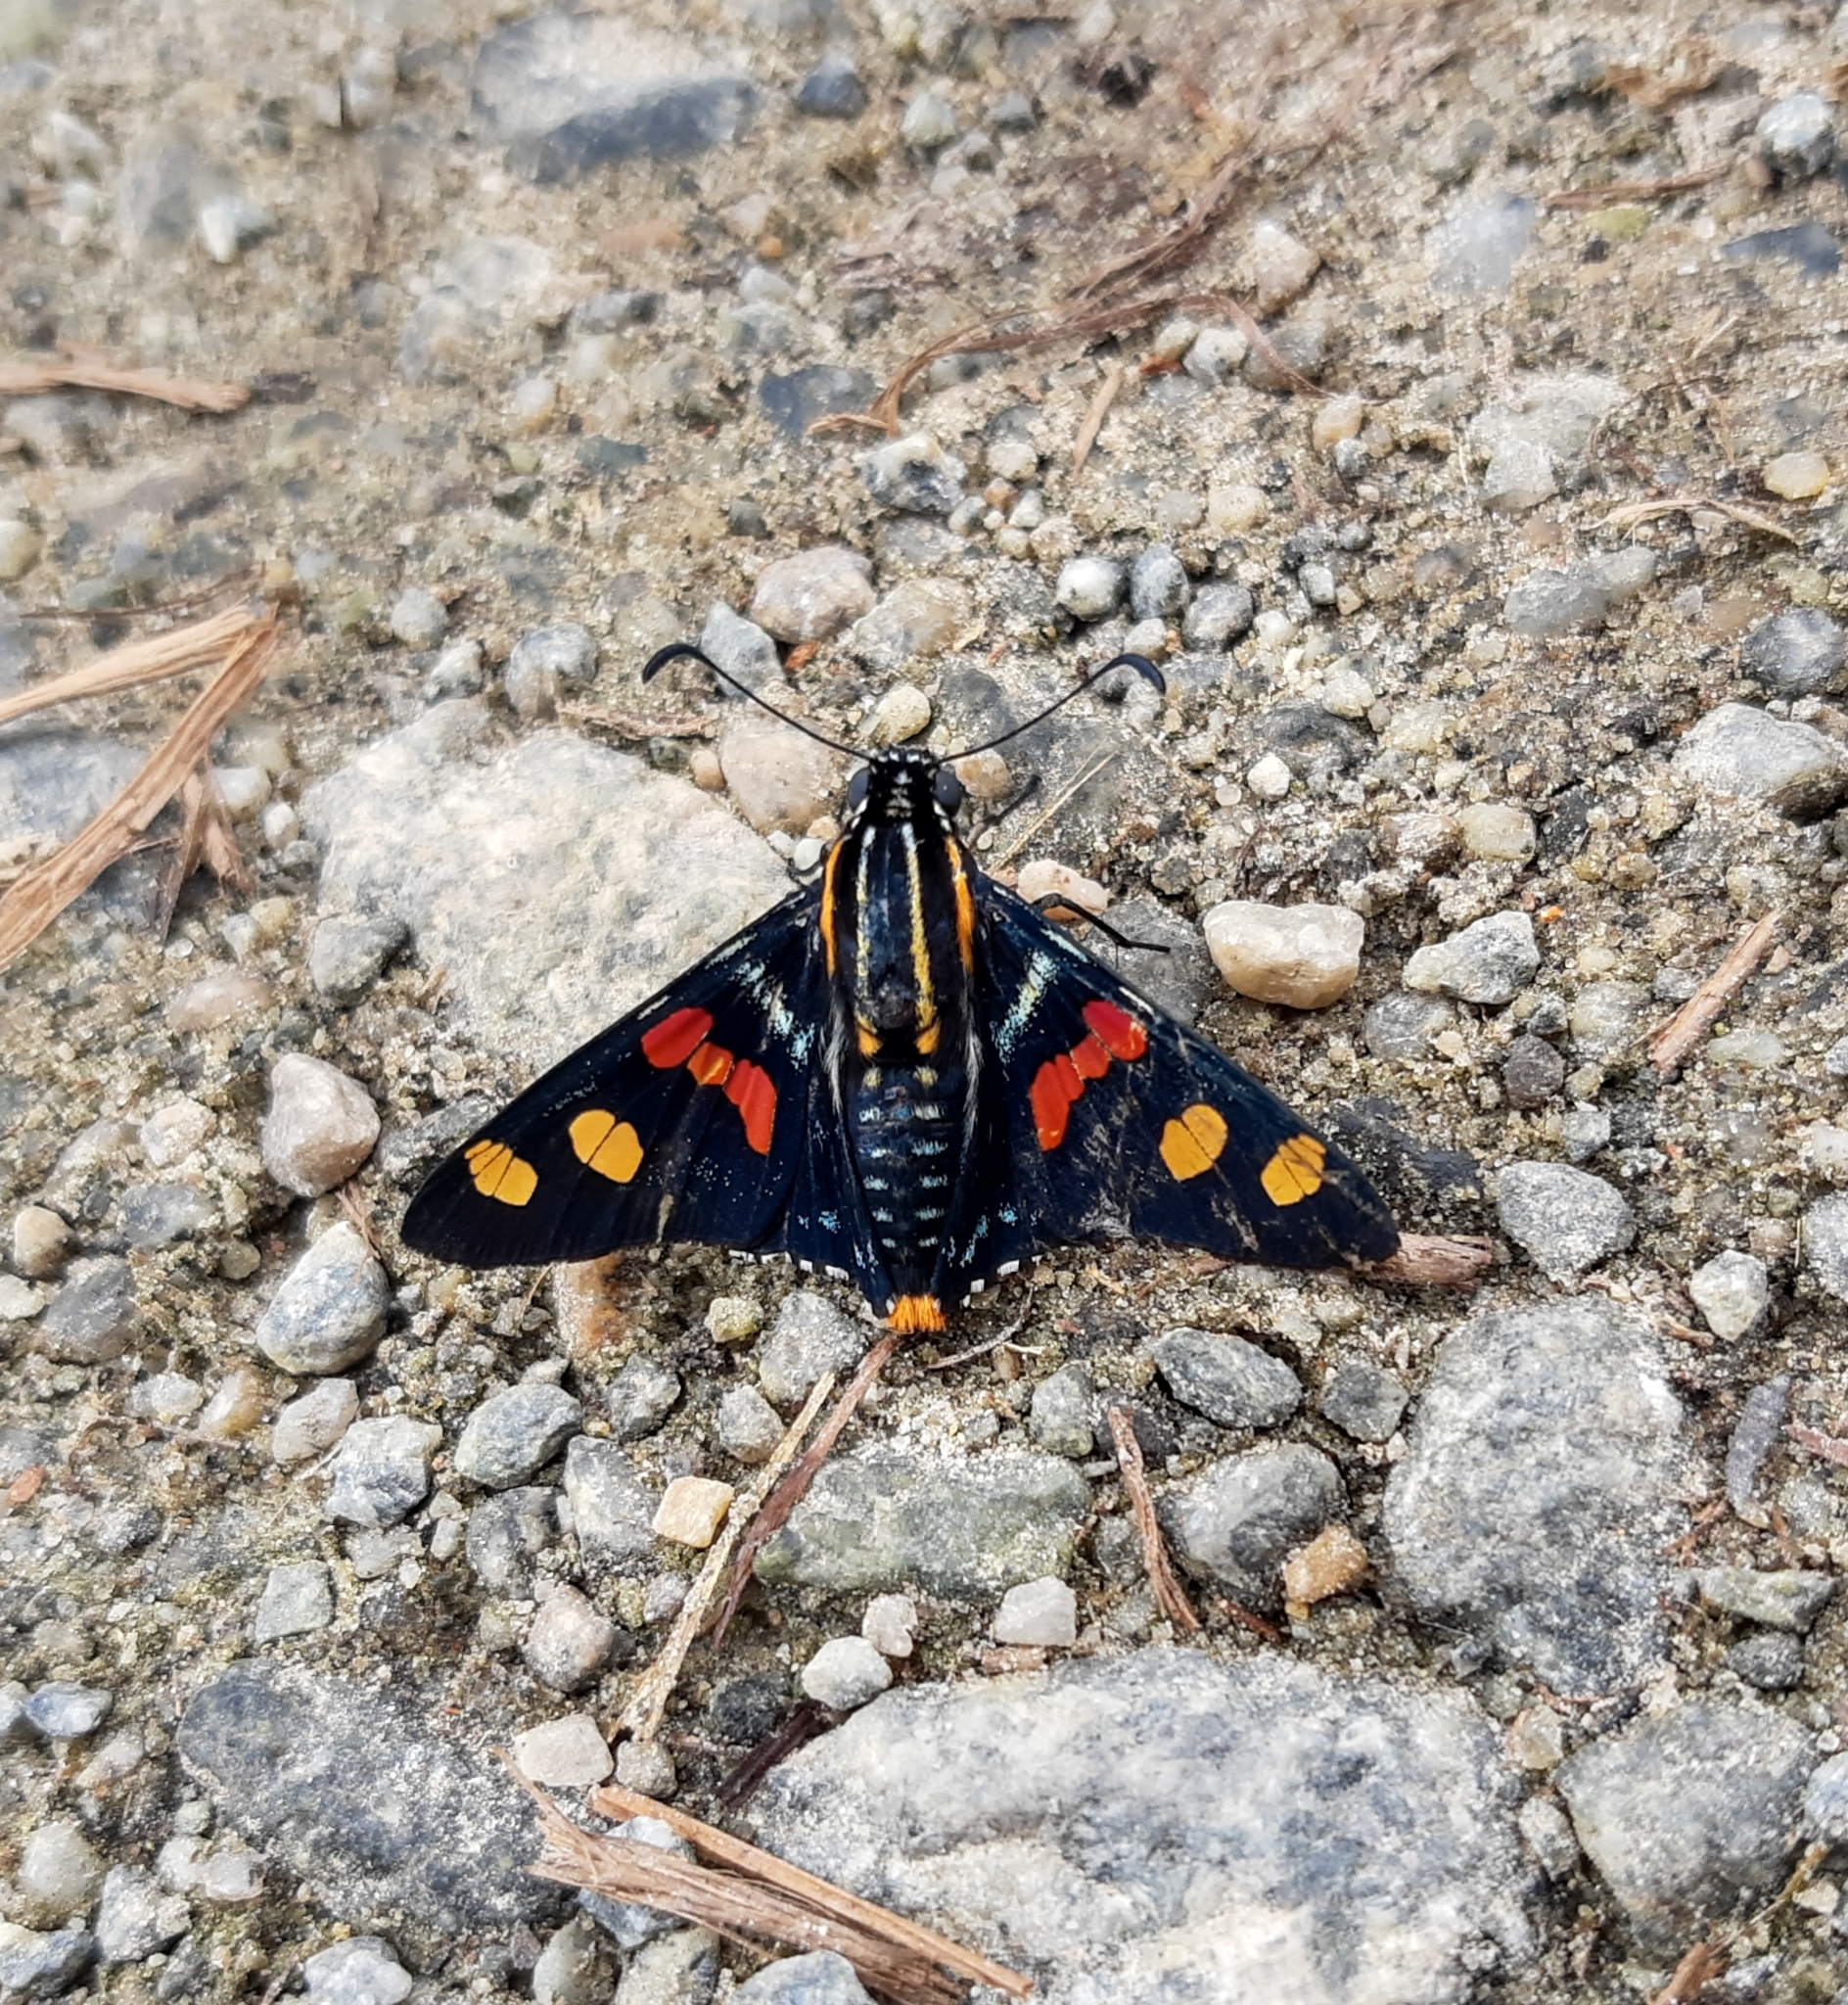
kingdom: Animalia
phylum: Arthropoda
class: Insecta
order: Lepidoptera
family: Hesperiidae
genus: Mimoniades
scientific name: Mimoniades versicolor
